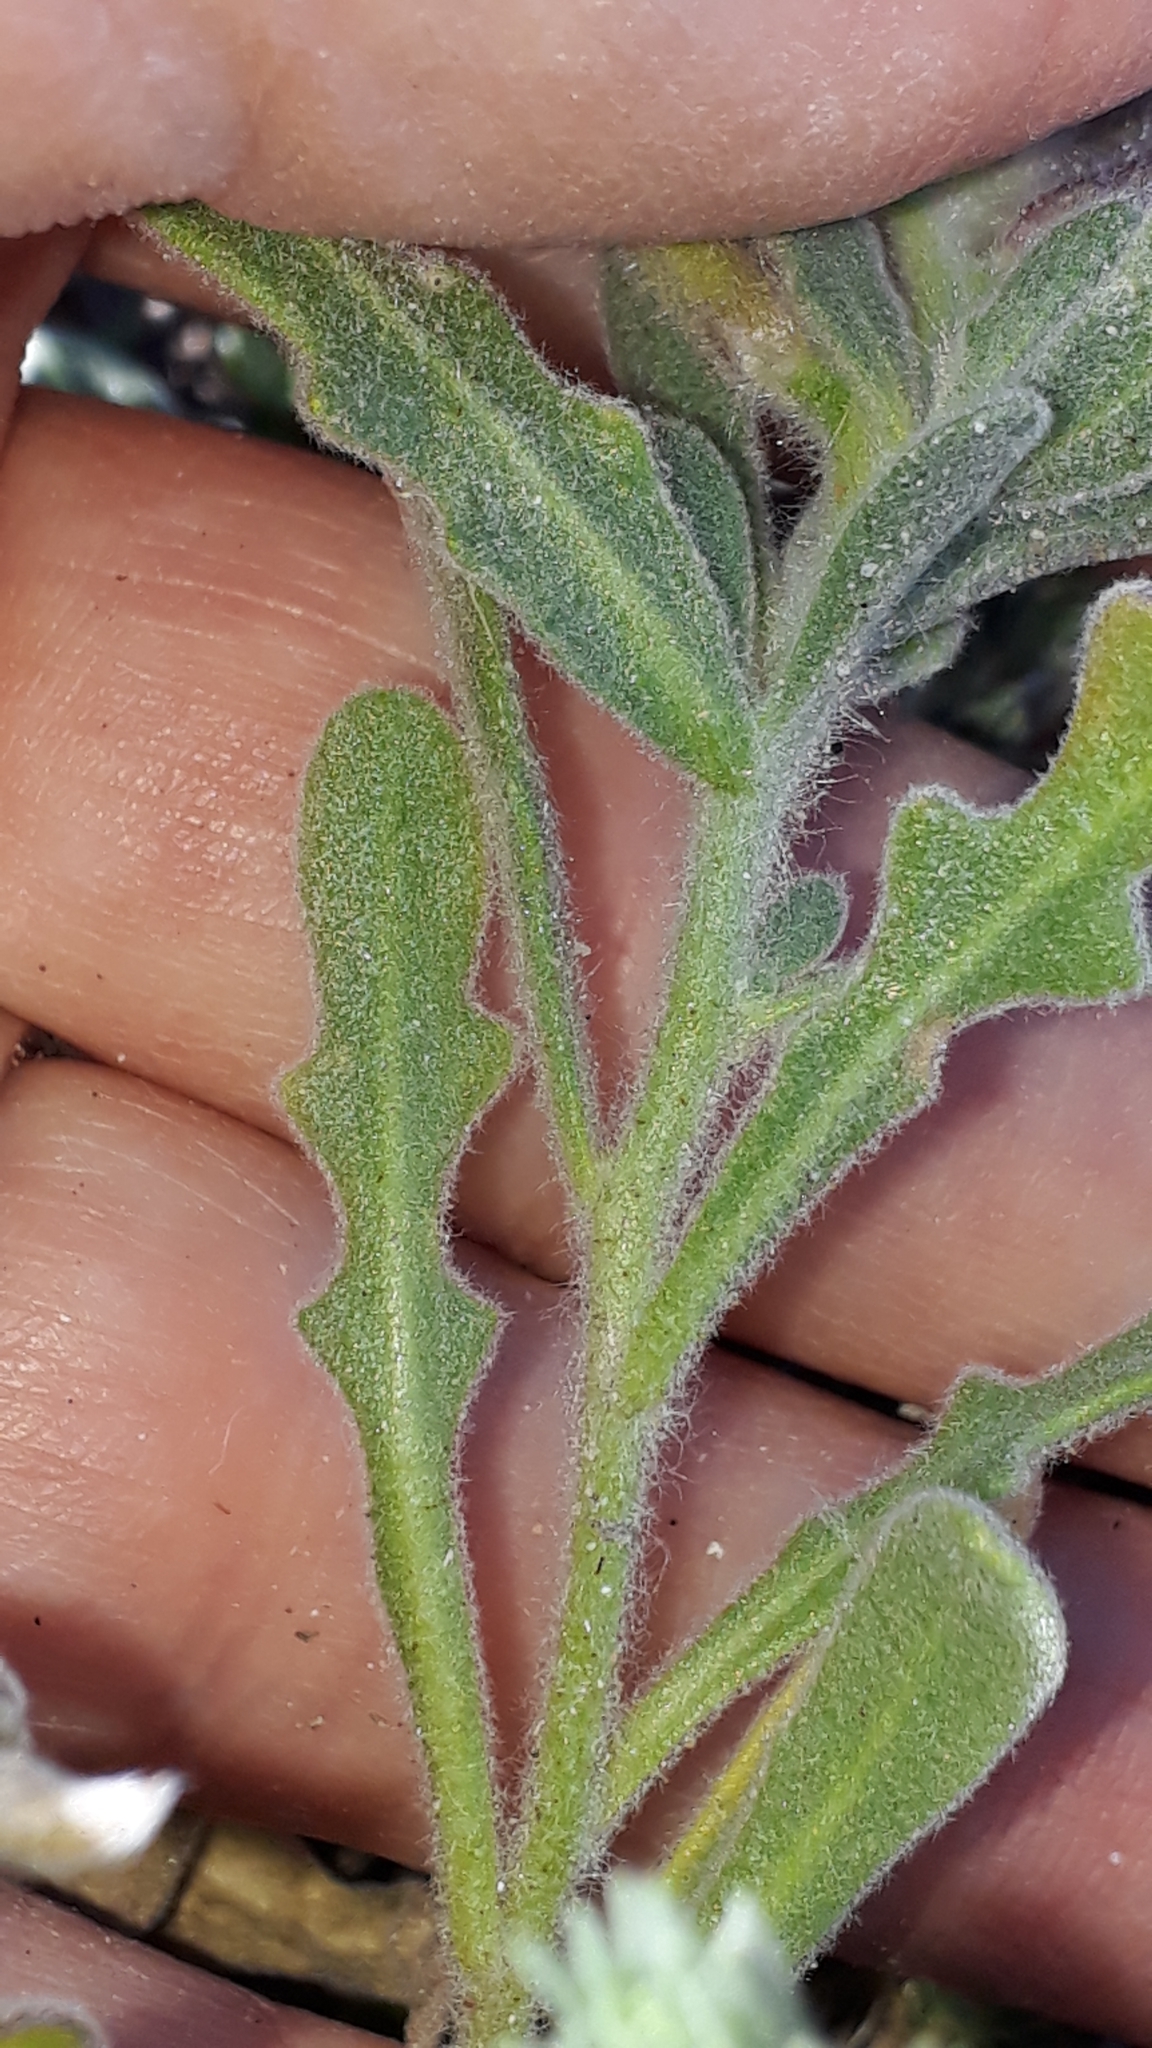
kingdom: Plantae
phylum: Tracheophyta
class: Magnoliopsida
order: Brassicales
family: Brassicaceae
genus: Matthiola
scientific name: Matthiola tricuspidata
